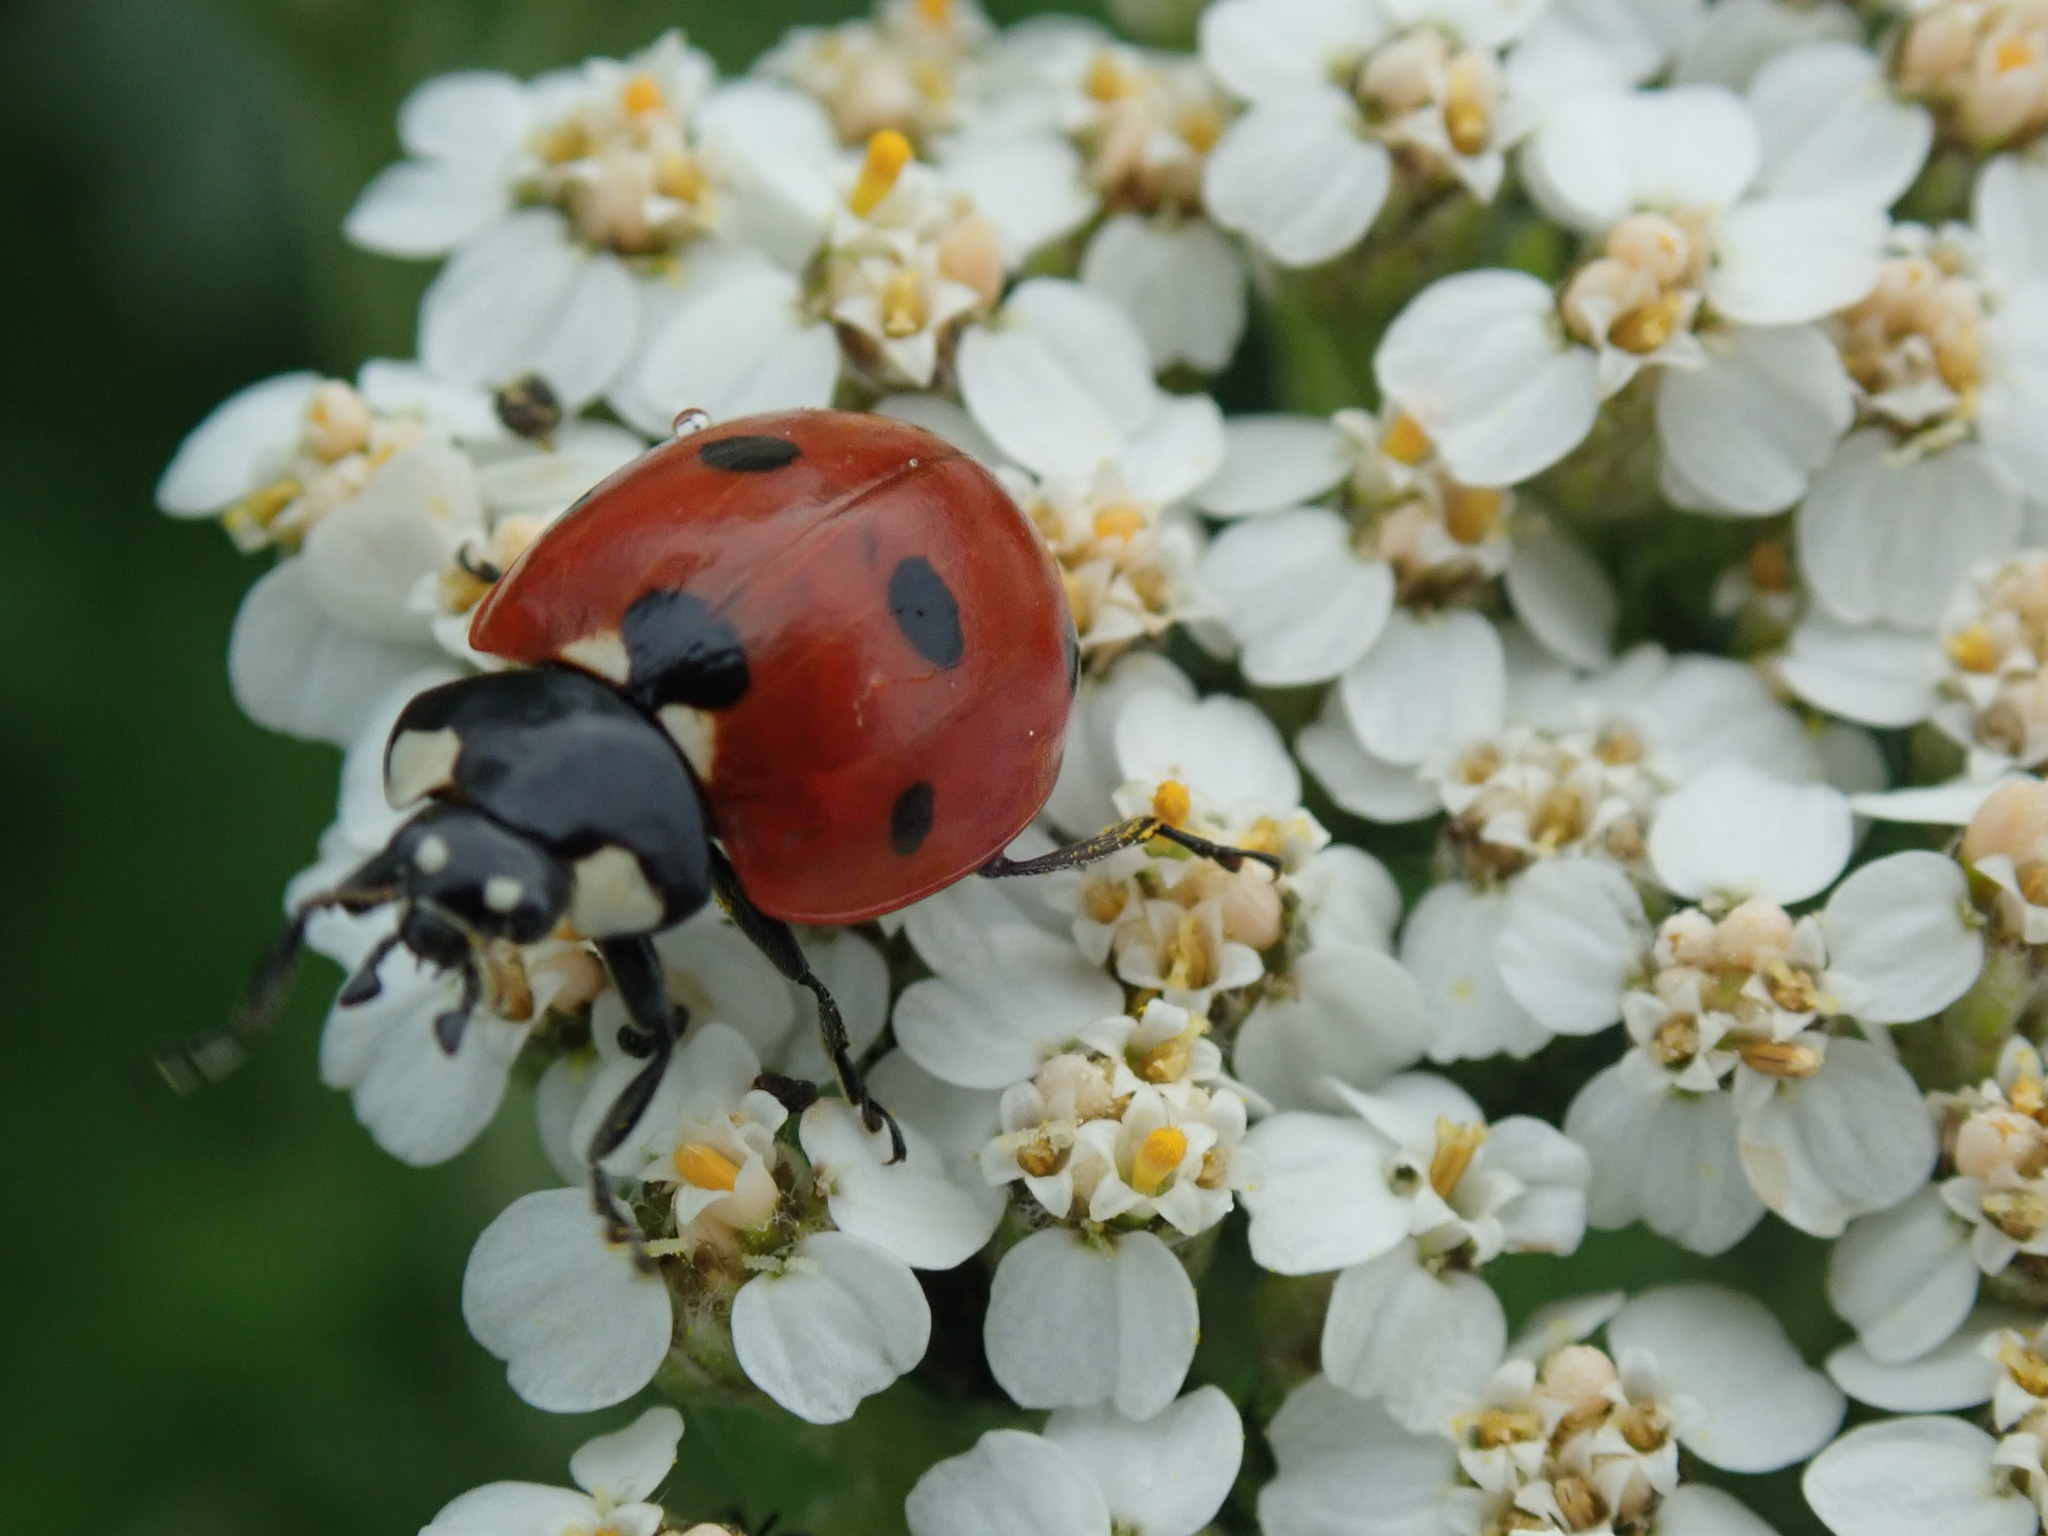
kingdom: Animalia
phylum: Arthropoda
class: Insecta
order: Coleoptera
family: Coccinellidae
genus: Coccinella
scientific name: Coccinella septempunctata
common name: Sevenspotted lady beetle
